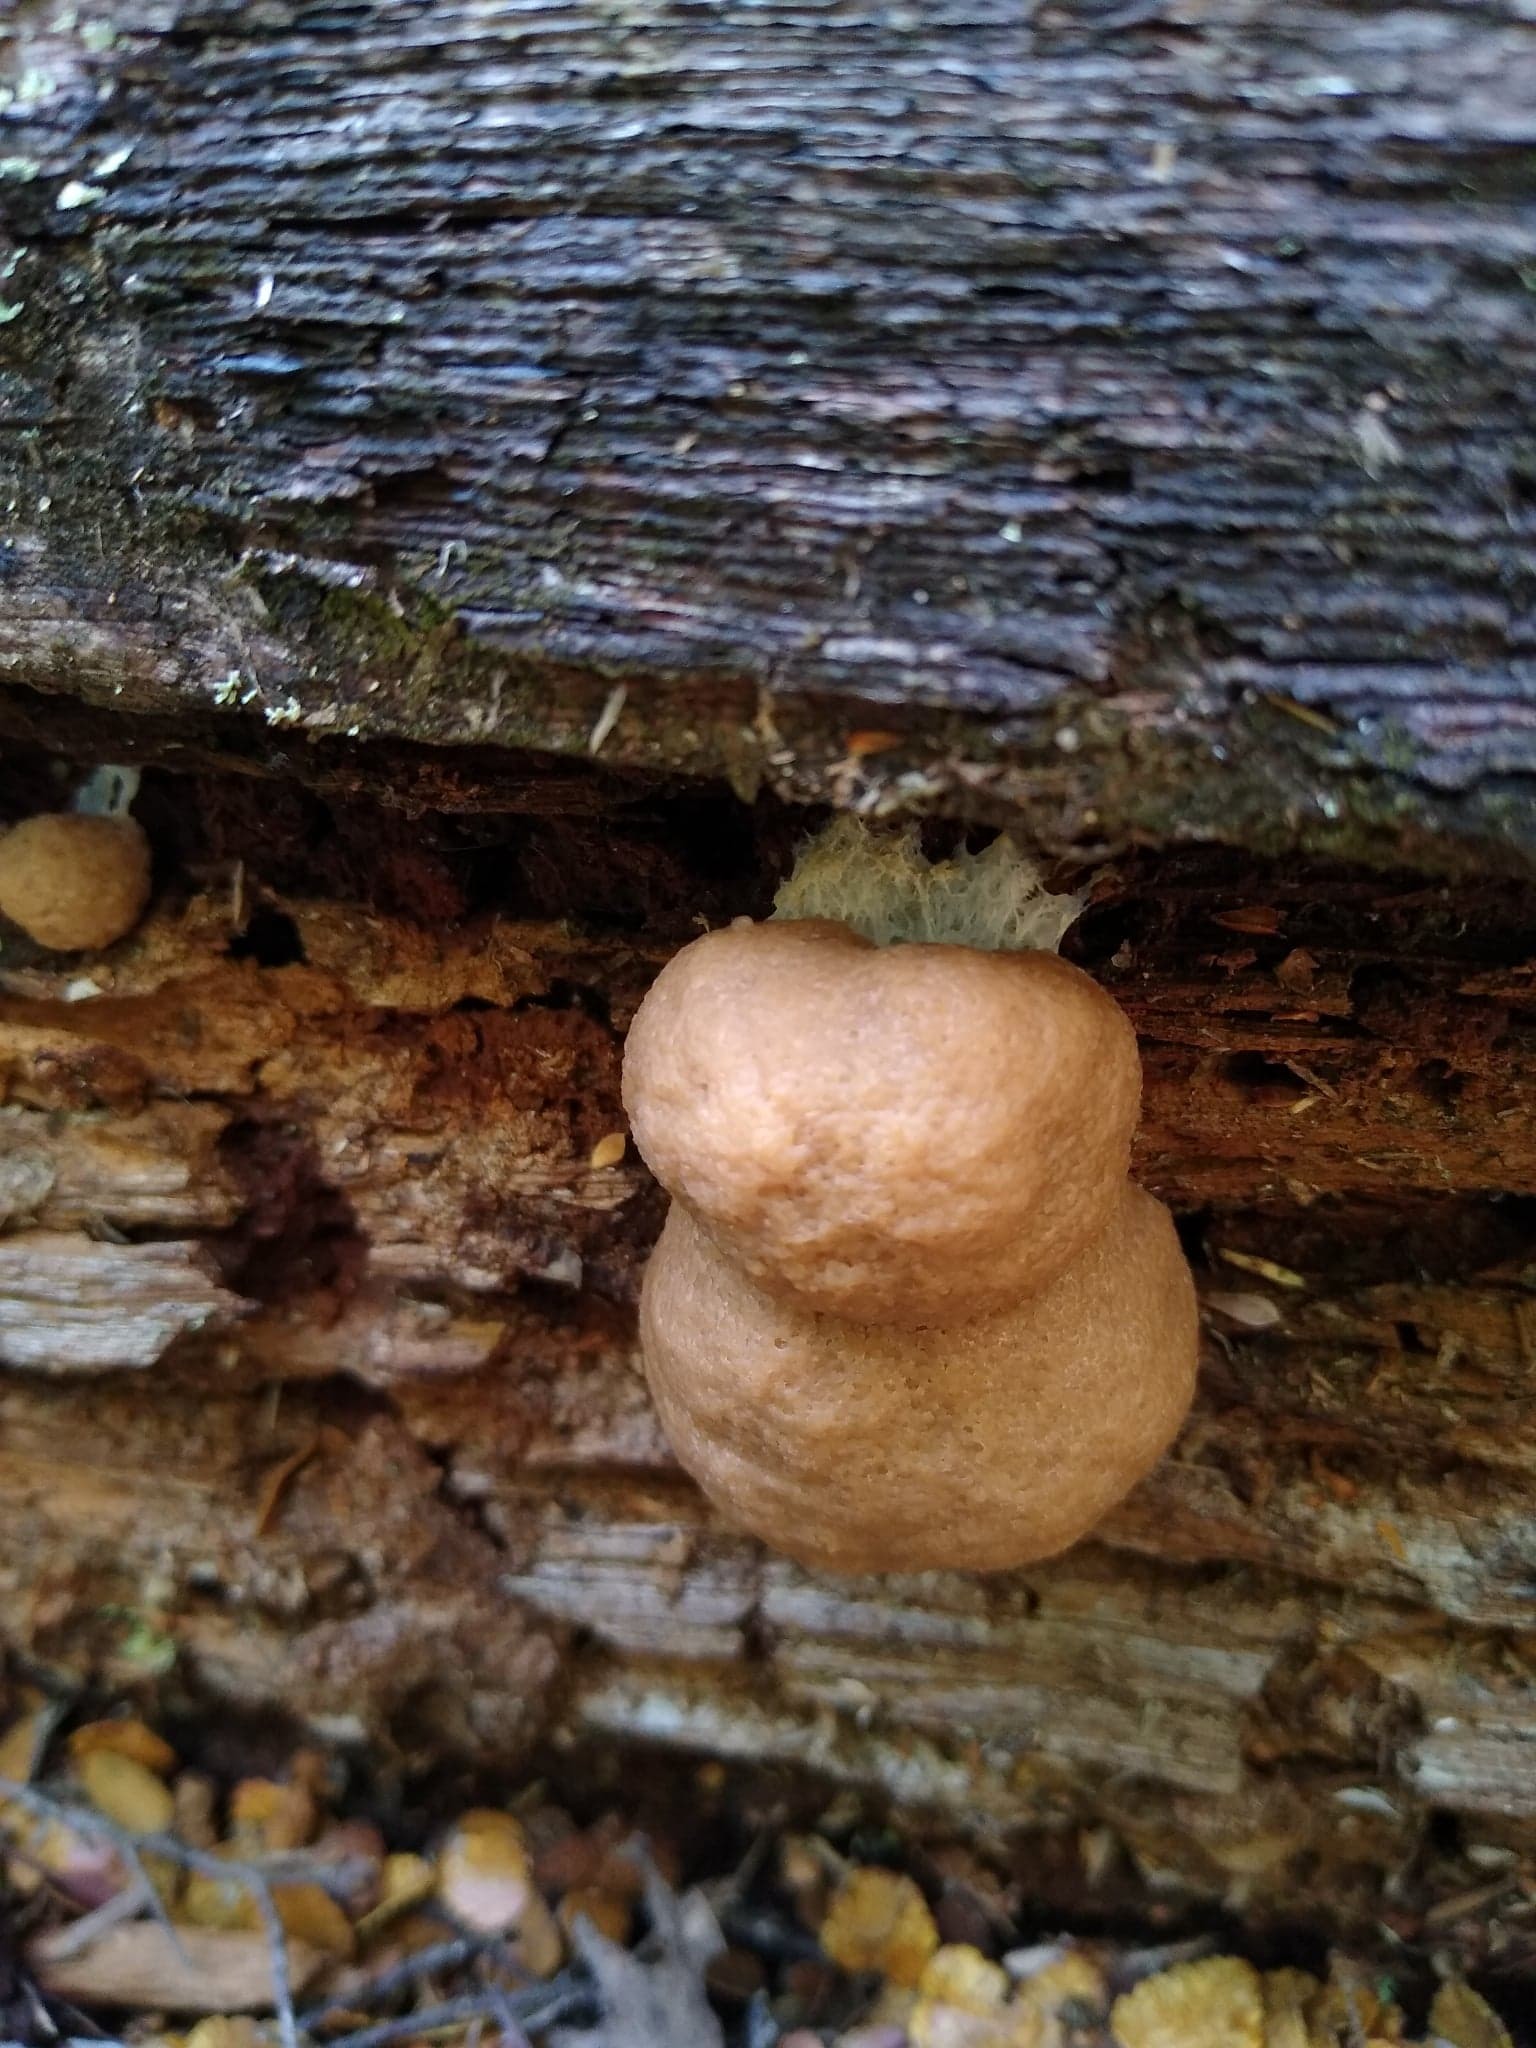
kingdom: Protozoa
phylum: Mycetozoa
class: Myxomycetes
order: Cribrariales
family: Tubiferaceae
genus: Tubifera
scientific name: Tubifera glareata
